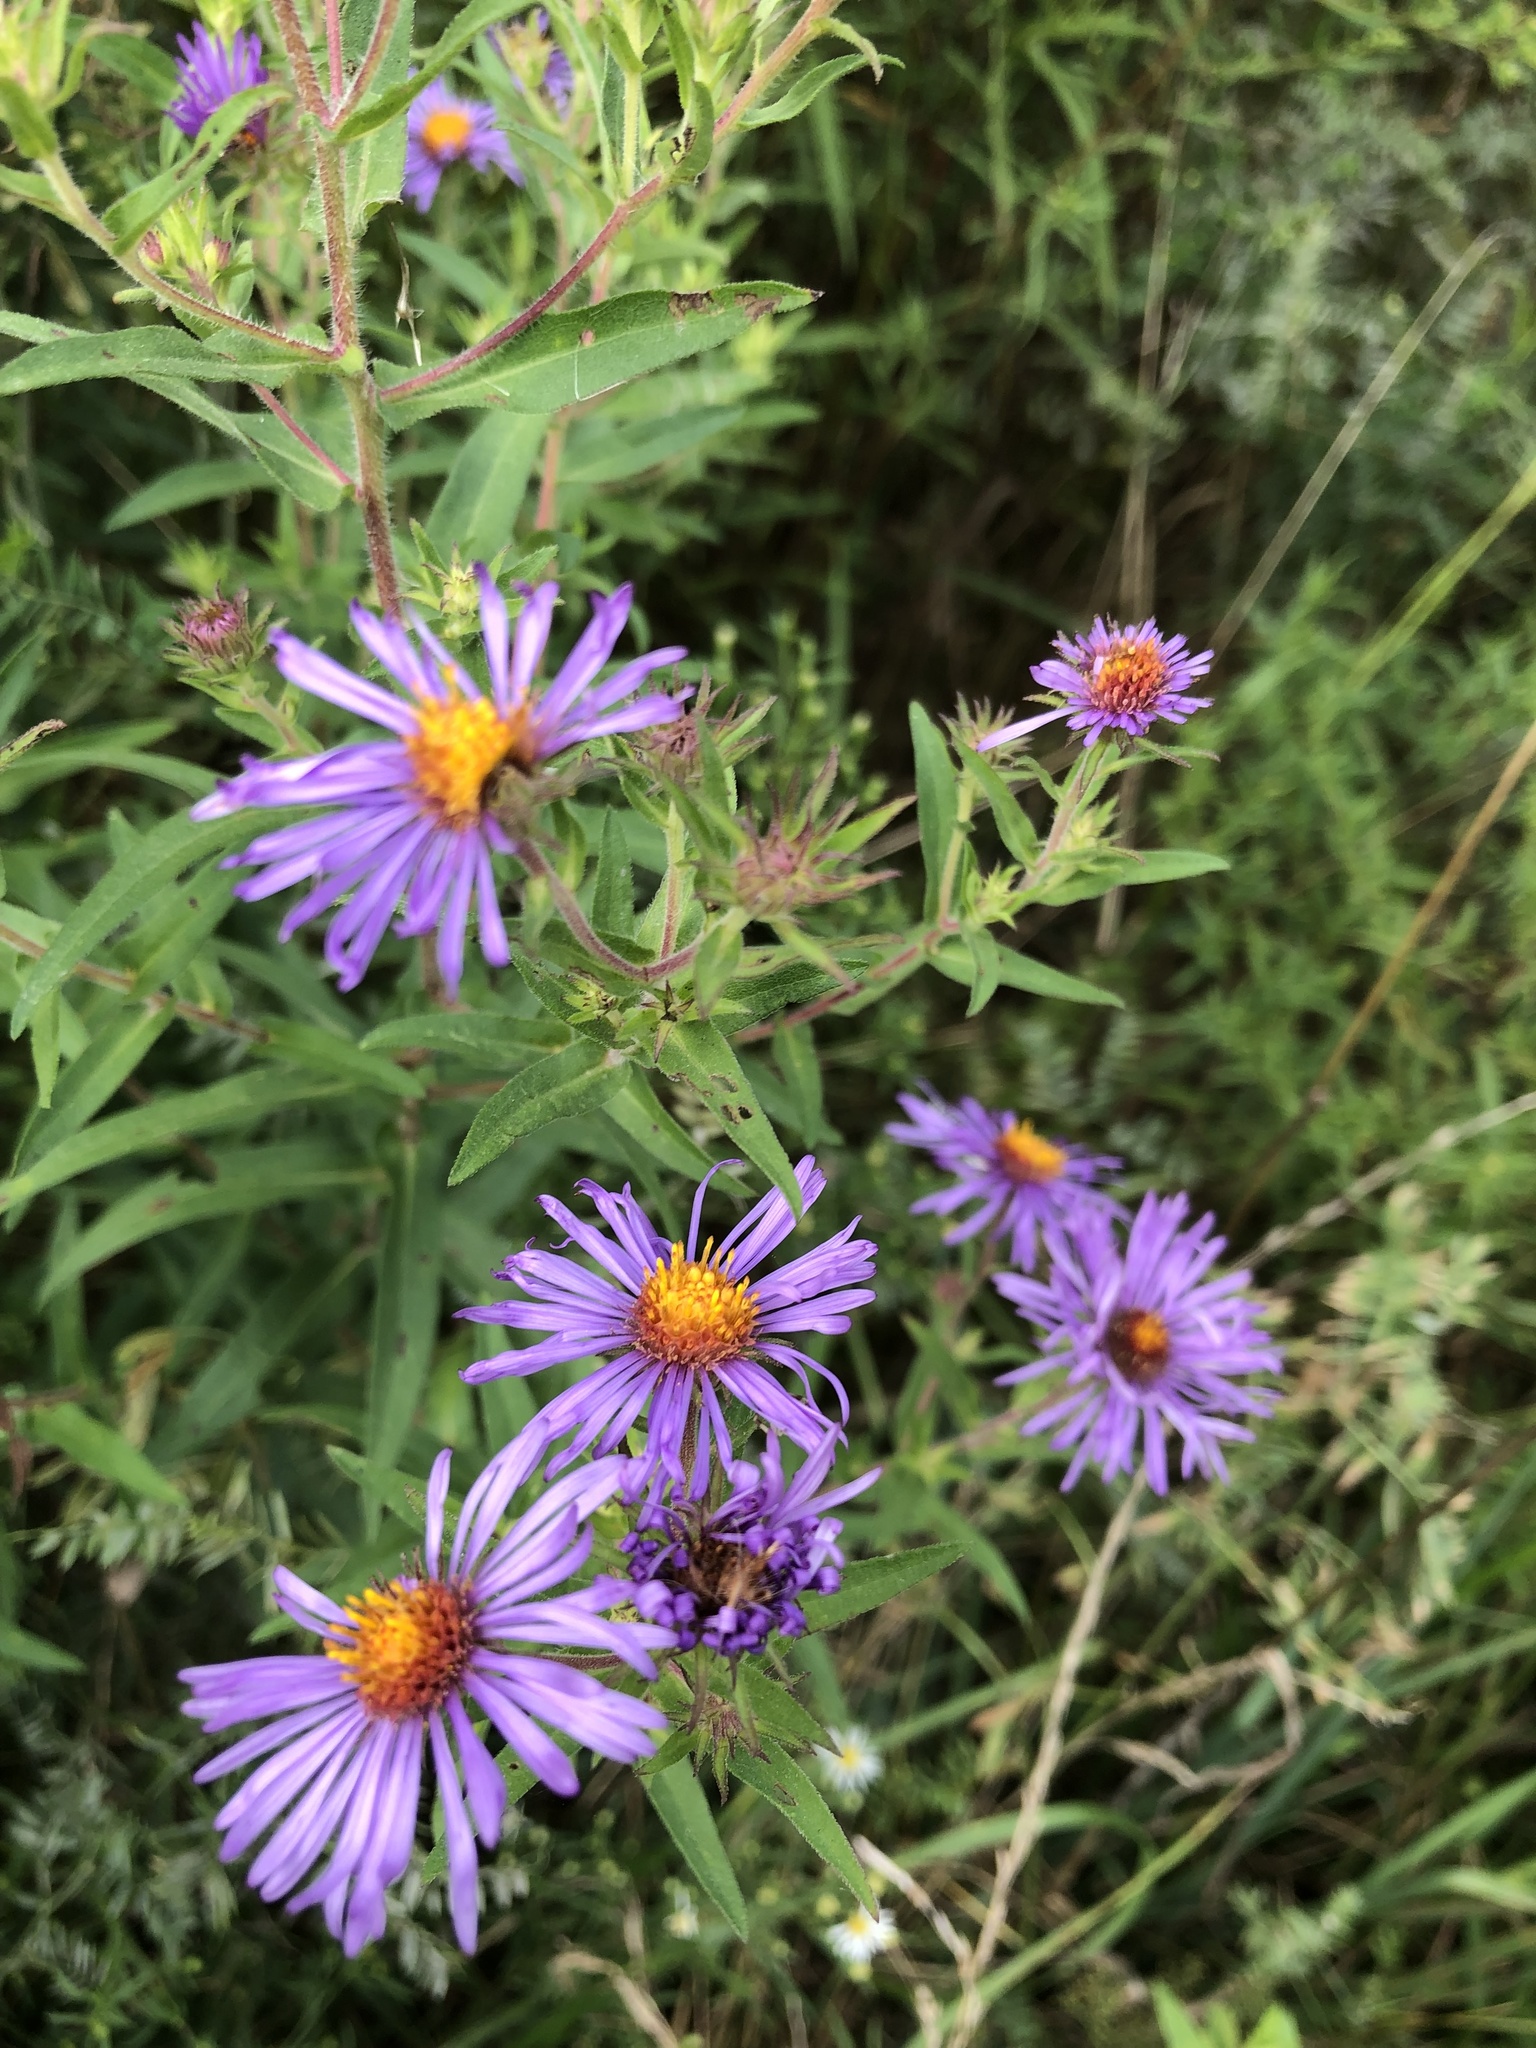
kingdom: Plantae
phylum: Tracheophyta
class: Magnoliopsida
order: Asterales
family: Asteraceae
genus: Symphyotrichum
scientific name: Symphyotrichum novae-angliae
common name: Michaelmas daisy
